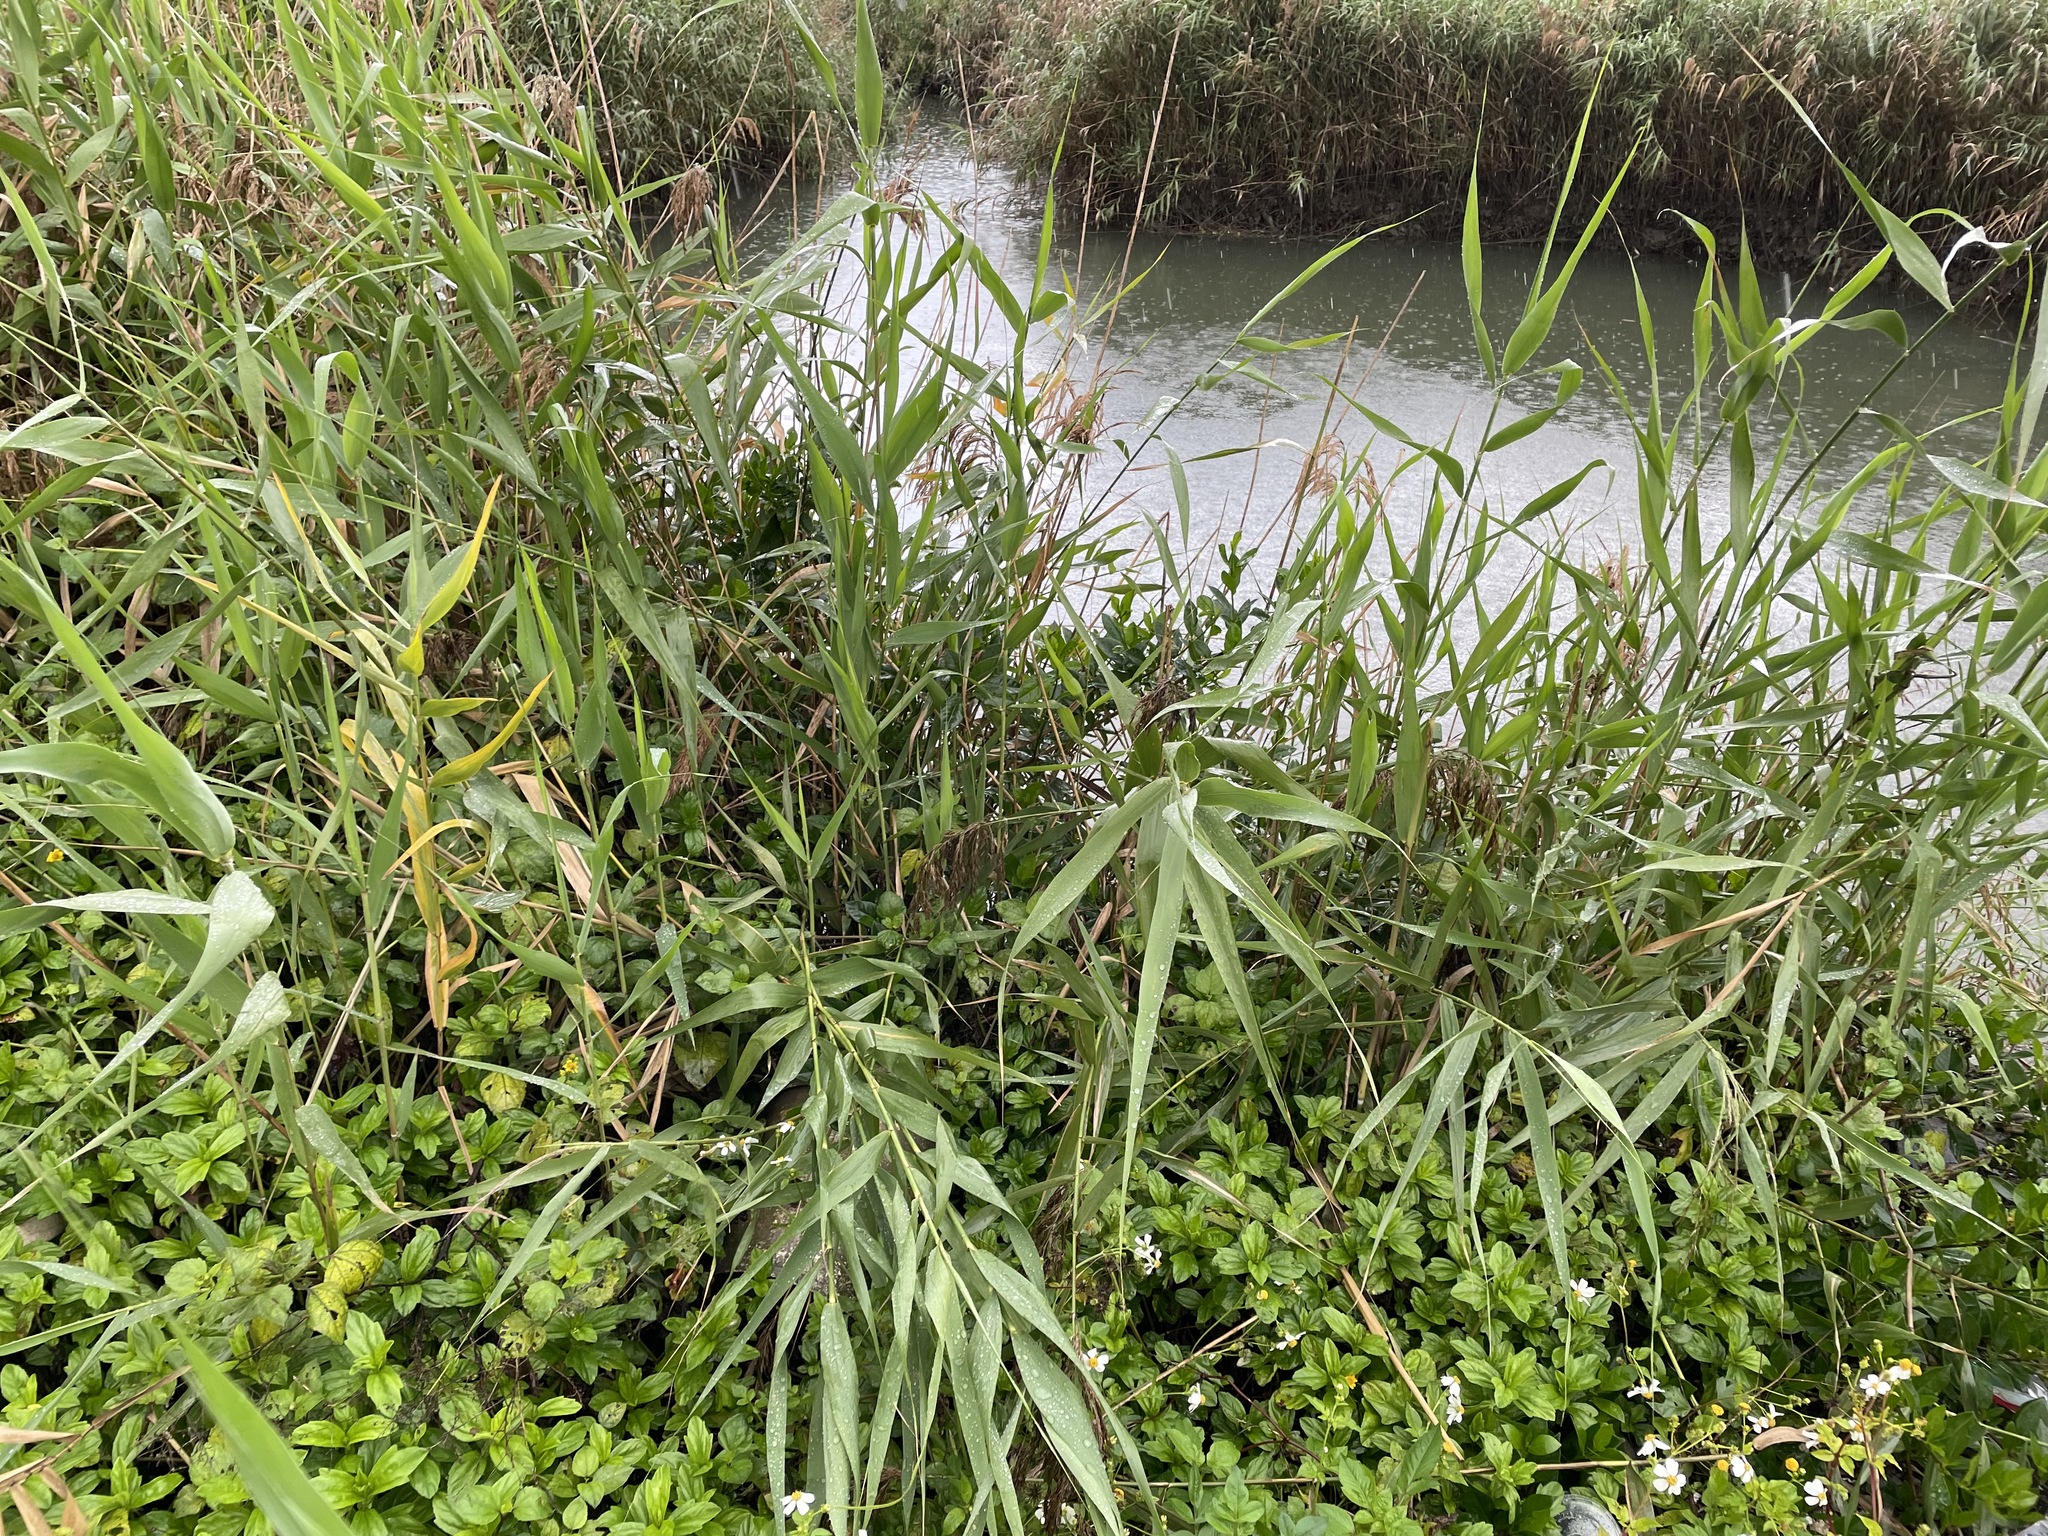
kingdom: Plantae
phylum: Tracheophyta
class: Liliopsida
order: Poales
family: Poaceae
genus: Phragmites
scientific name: Phragmites australis
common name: Common reed
